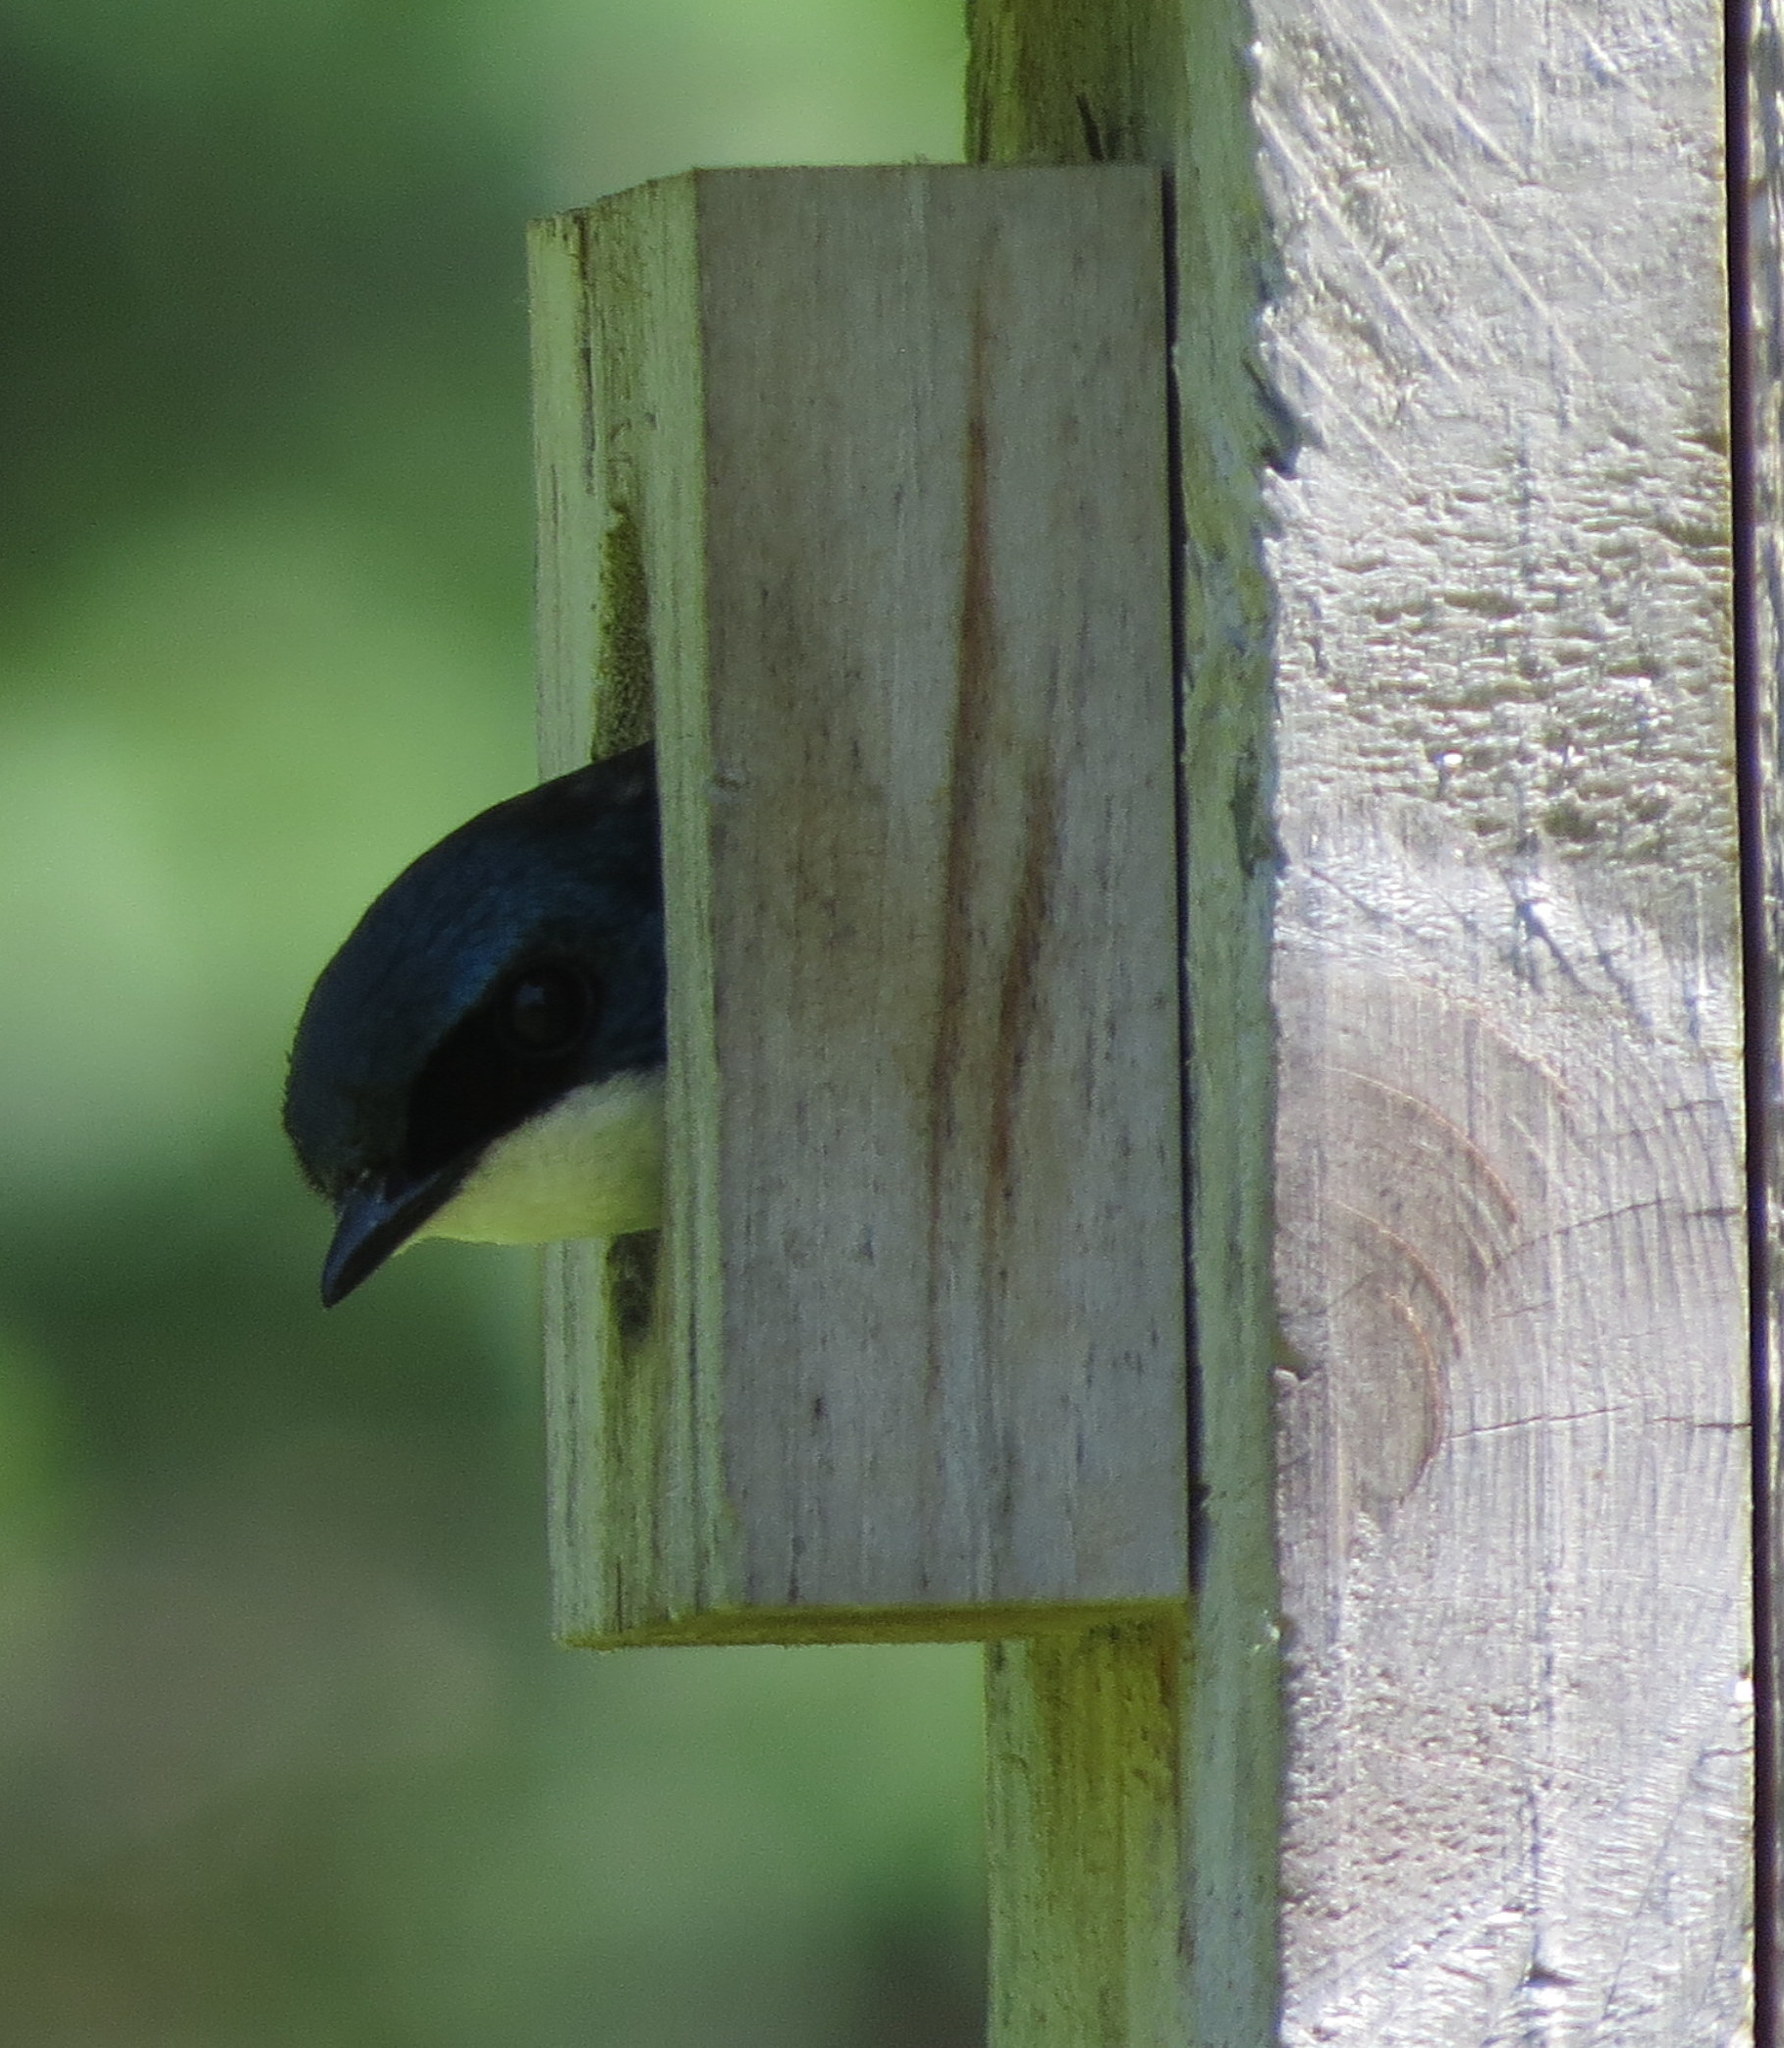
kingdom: Animalia
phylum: Chordata
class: Aves
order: Passeriformes
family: Hirundinidae
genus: Tachycineta
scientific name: Tachycineta bicolor
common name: Tree swallow
